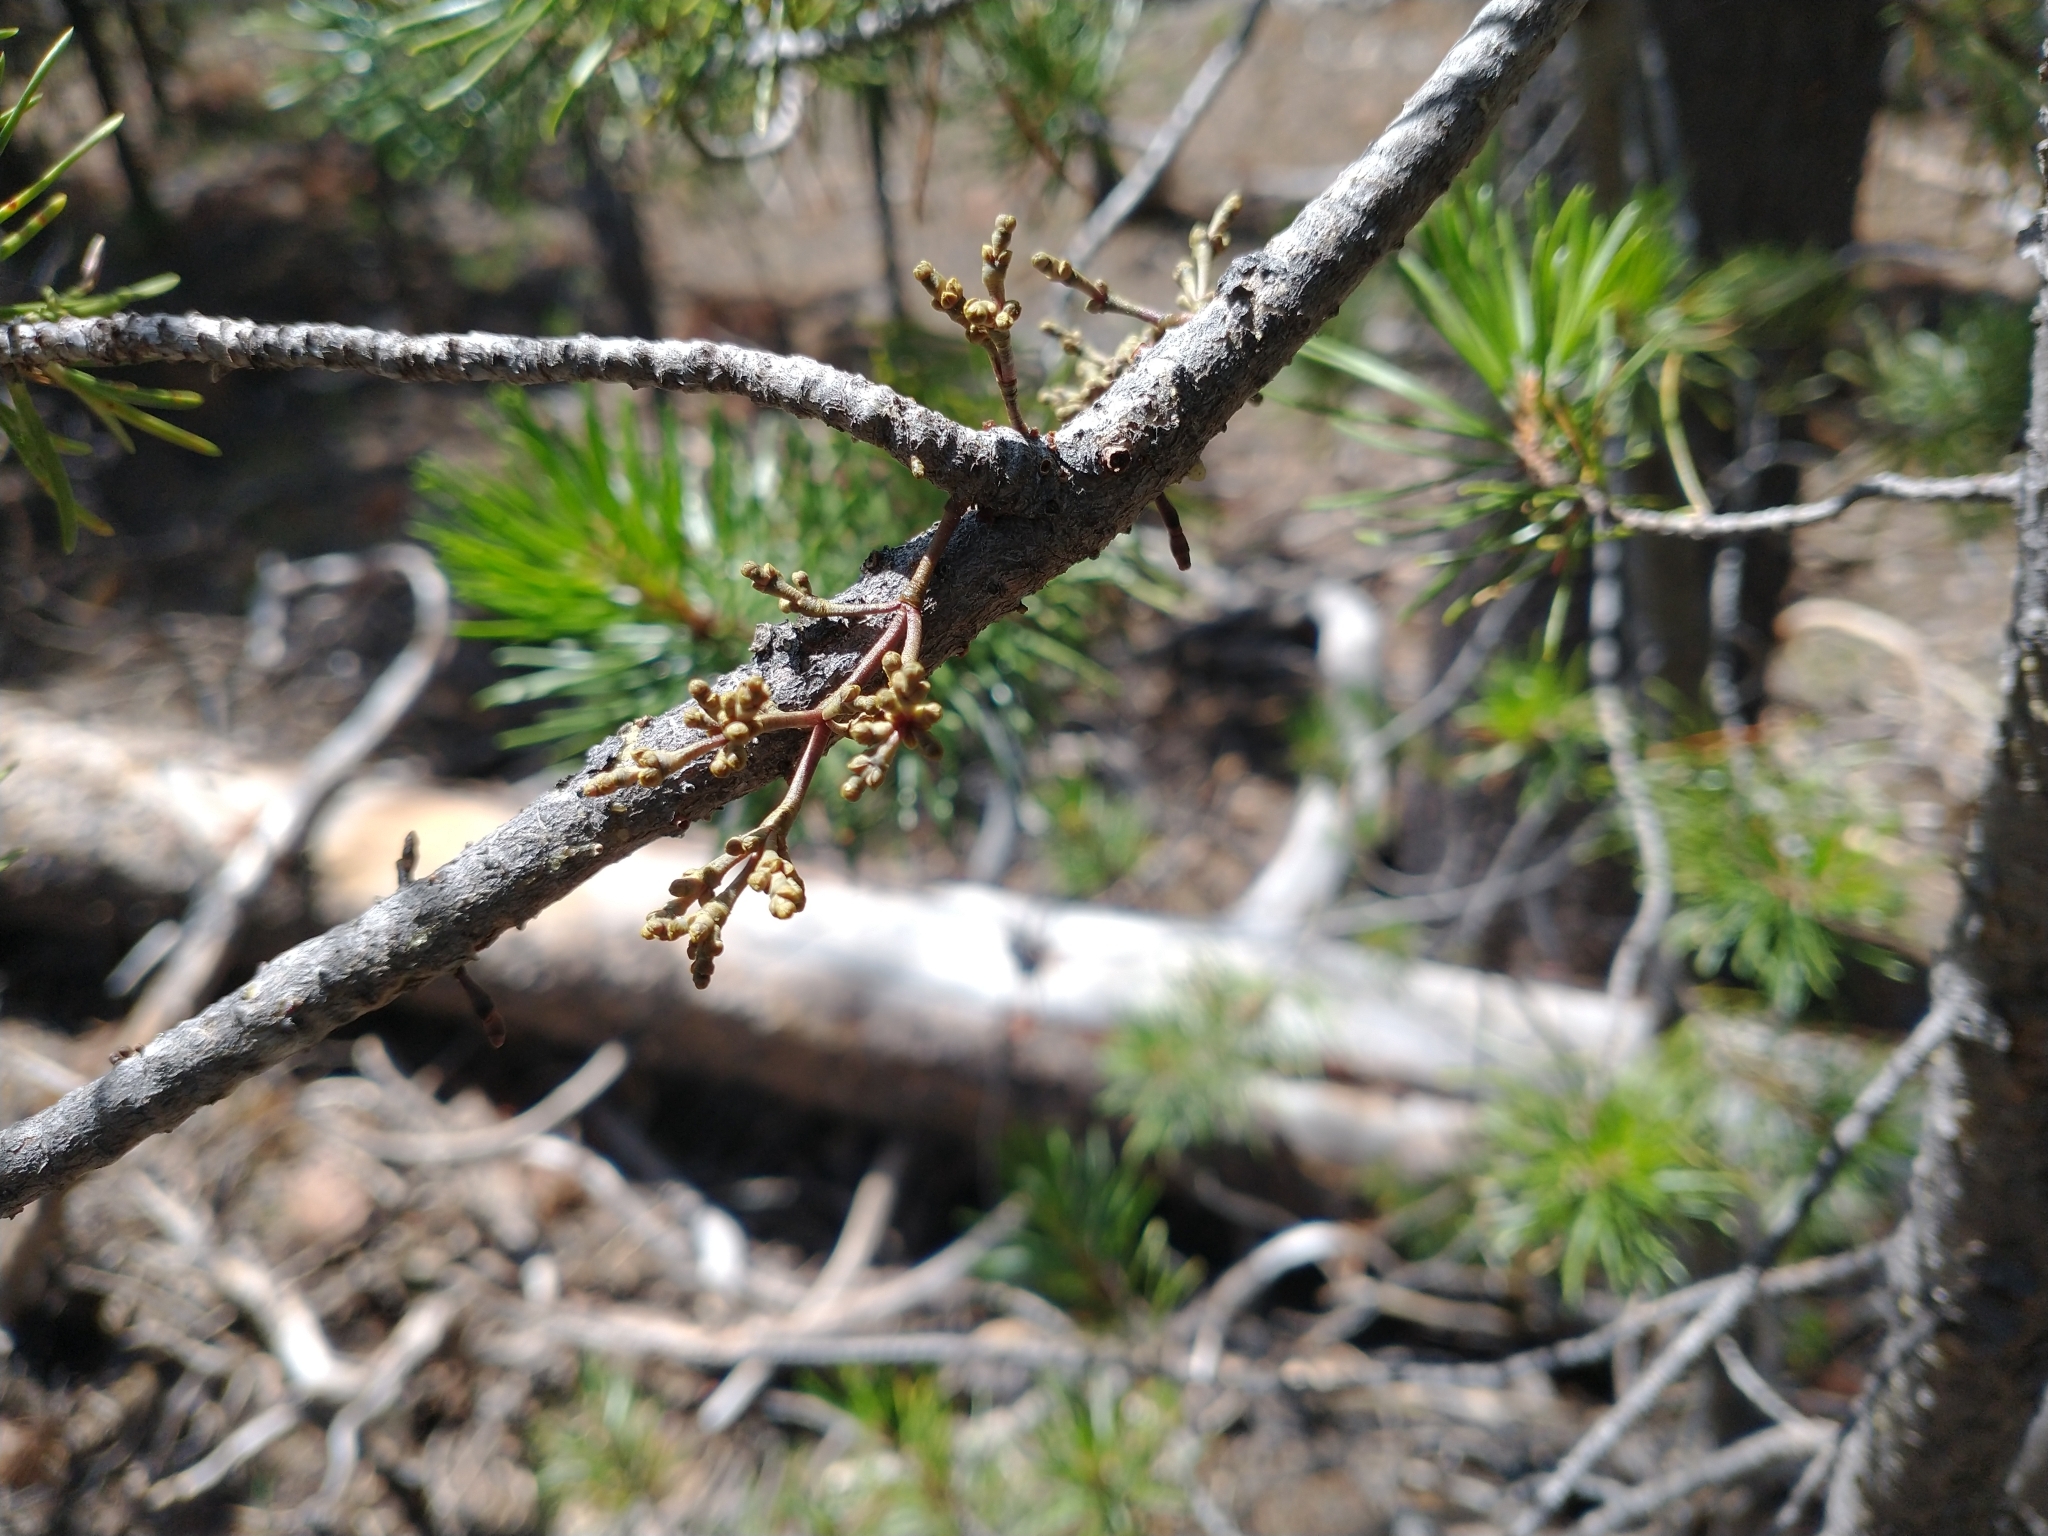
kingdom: Plantae
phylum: Tracheophyta
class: Magnoliopsida
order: Santalales
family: Viscaceae
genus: Arceuthobium
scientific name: Arceuthobium americanum
